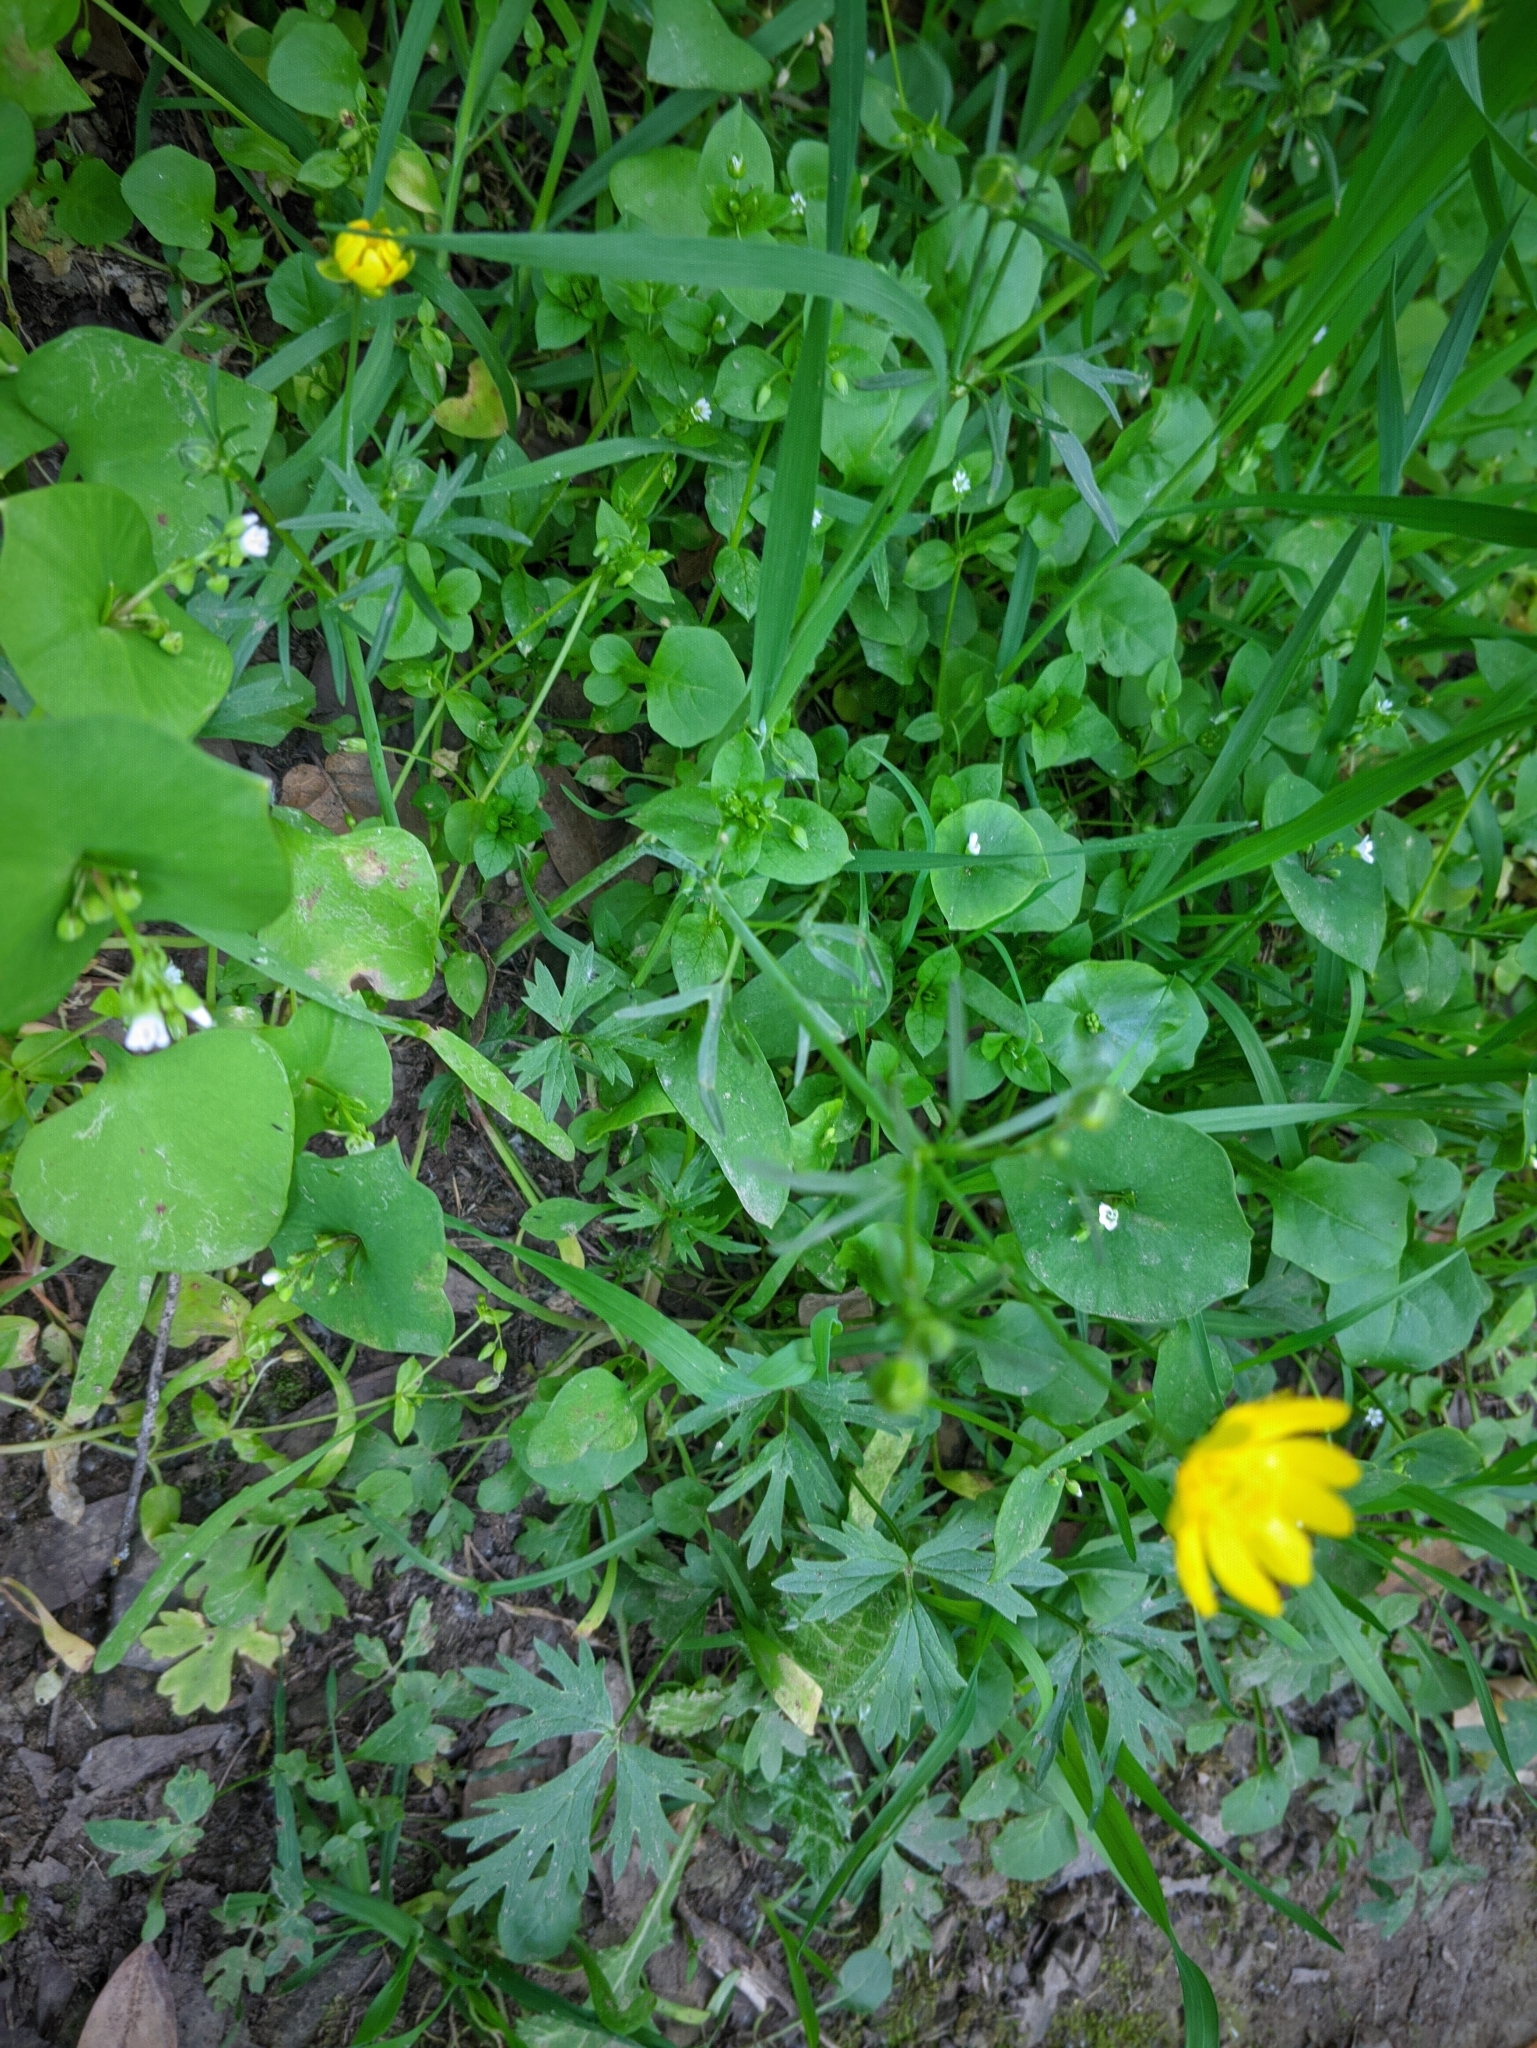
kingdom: Plantae
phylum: Tracheophyta
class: Magnoliopsida
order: Ranunculales
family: Ranunculaceae
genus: Ranunculus
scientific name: Ranunculus californicus
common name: California buttercup
